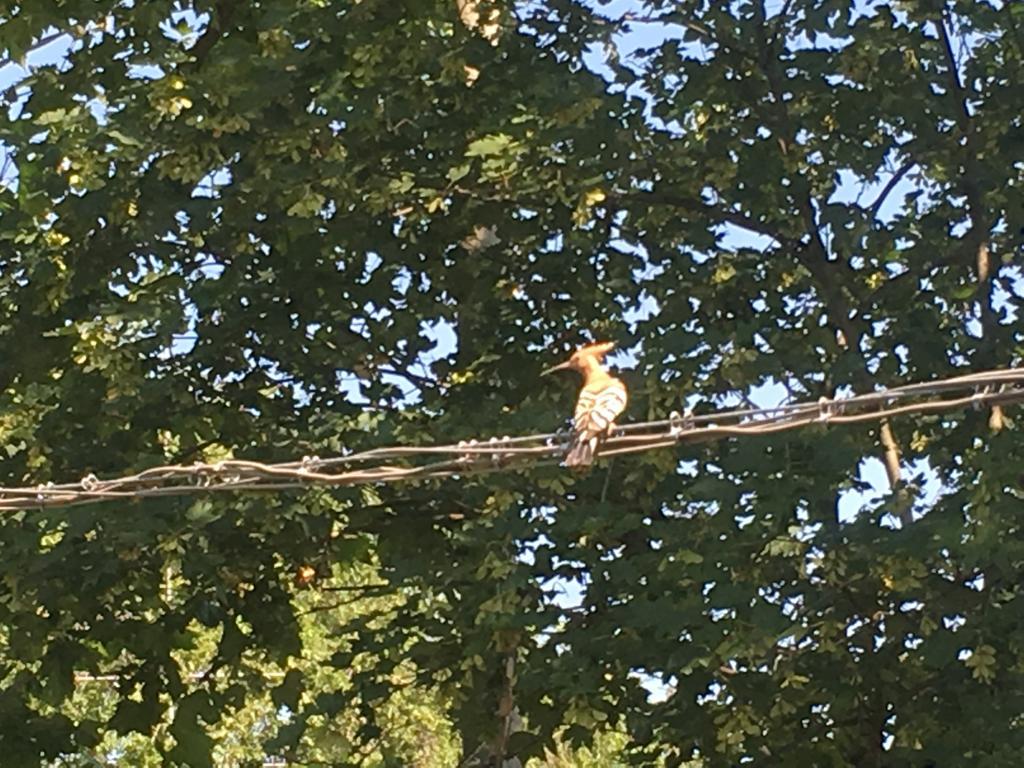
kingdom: Animalia
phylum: Chordata
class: Aves
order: Bucerotiformes
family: Upupidae
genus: Upupa
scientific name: Upupa epops
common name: Eurasian hoopoe
